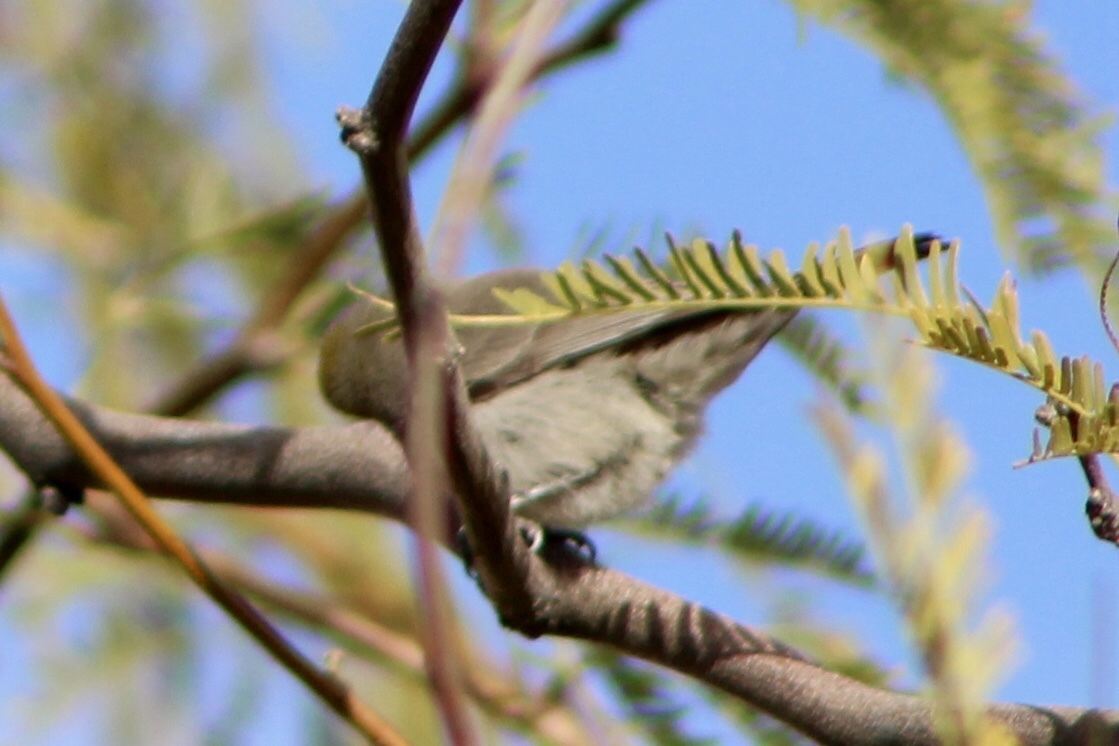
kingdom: Animalia
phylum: Chordata
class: Aves
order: Passeriformes
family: Remizidae
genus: Auriparus
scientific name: Auriparus flaviceps
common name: Verdin
